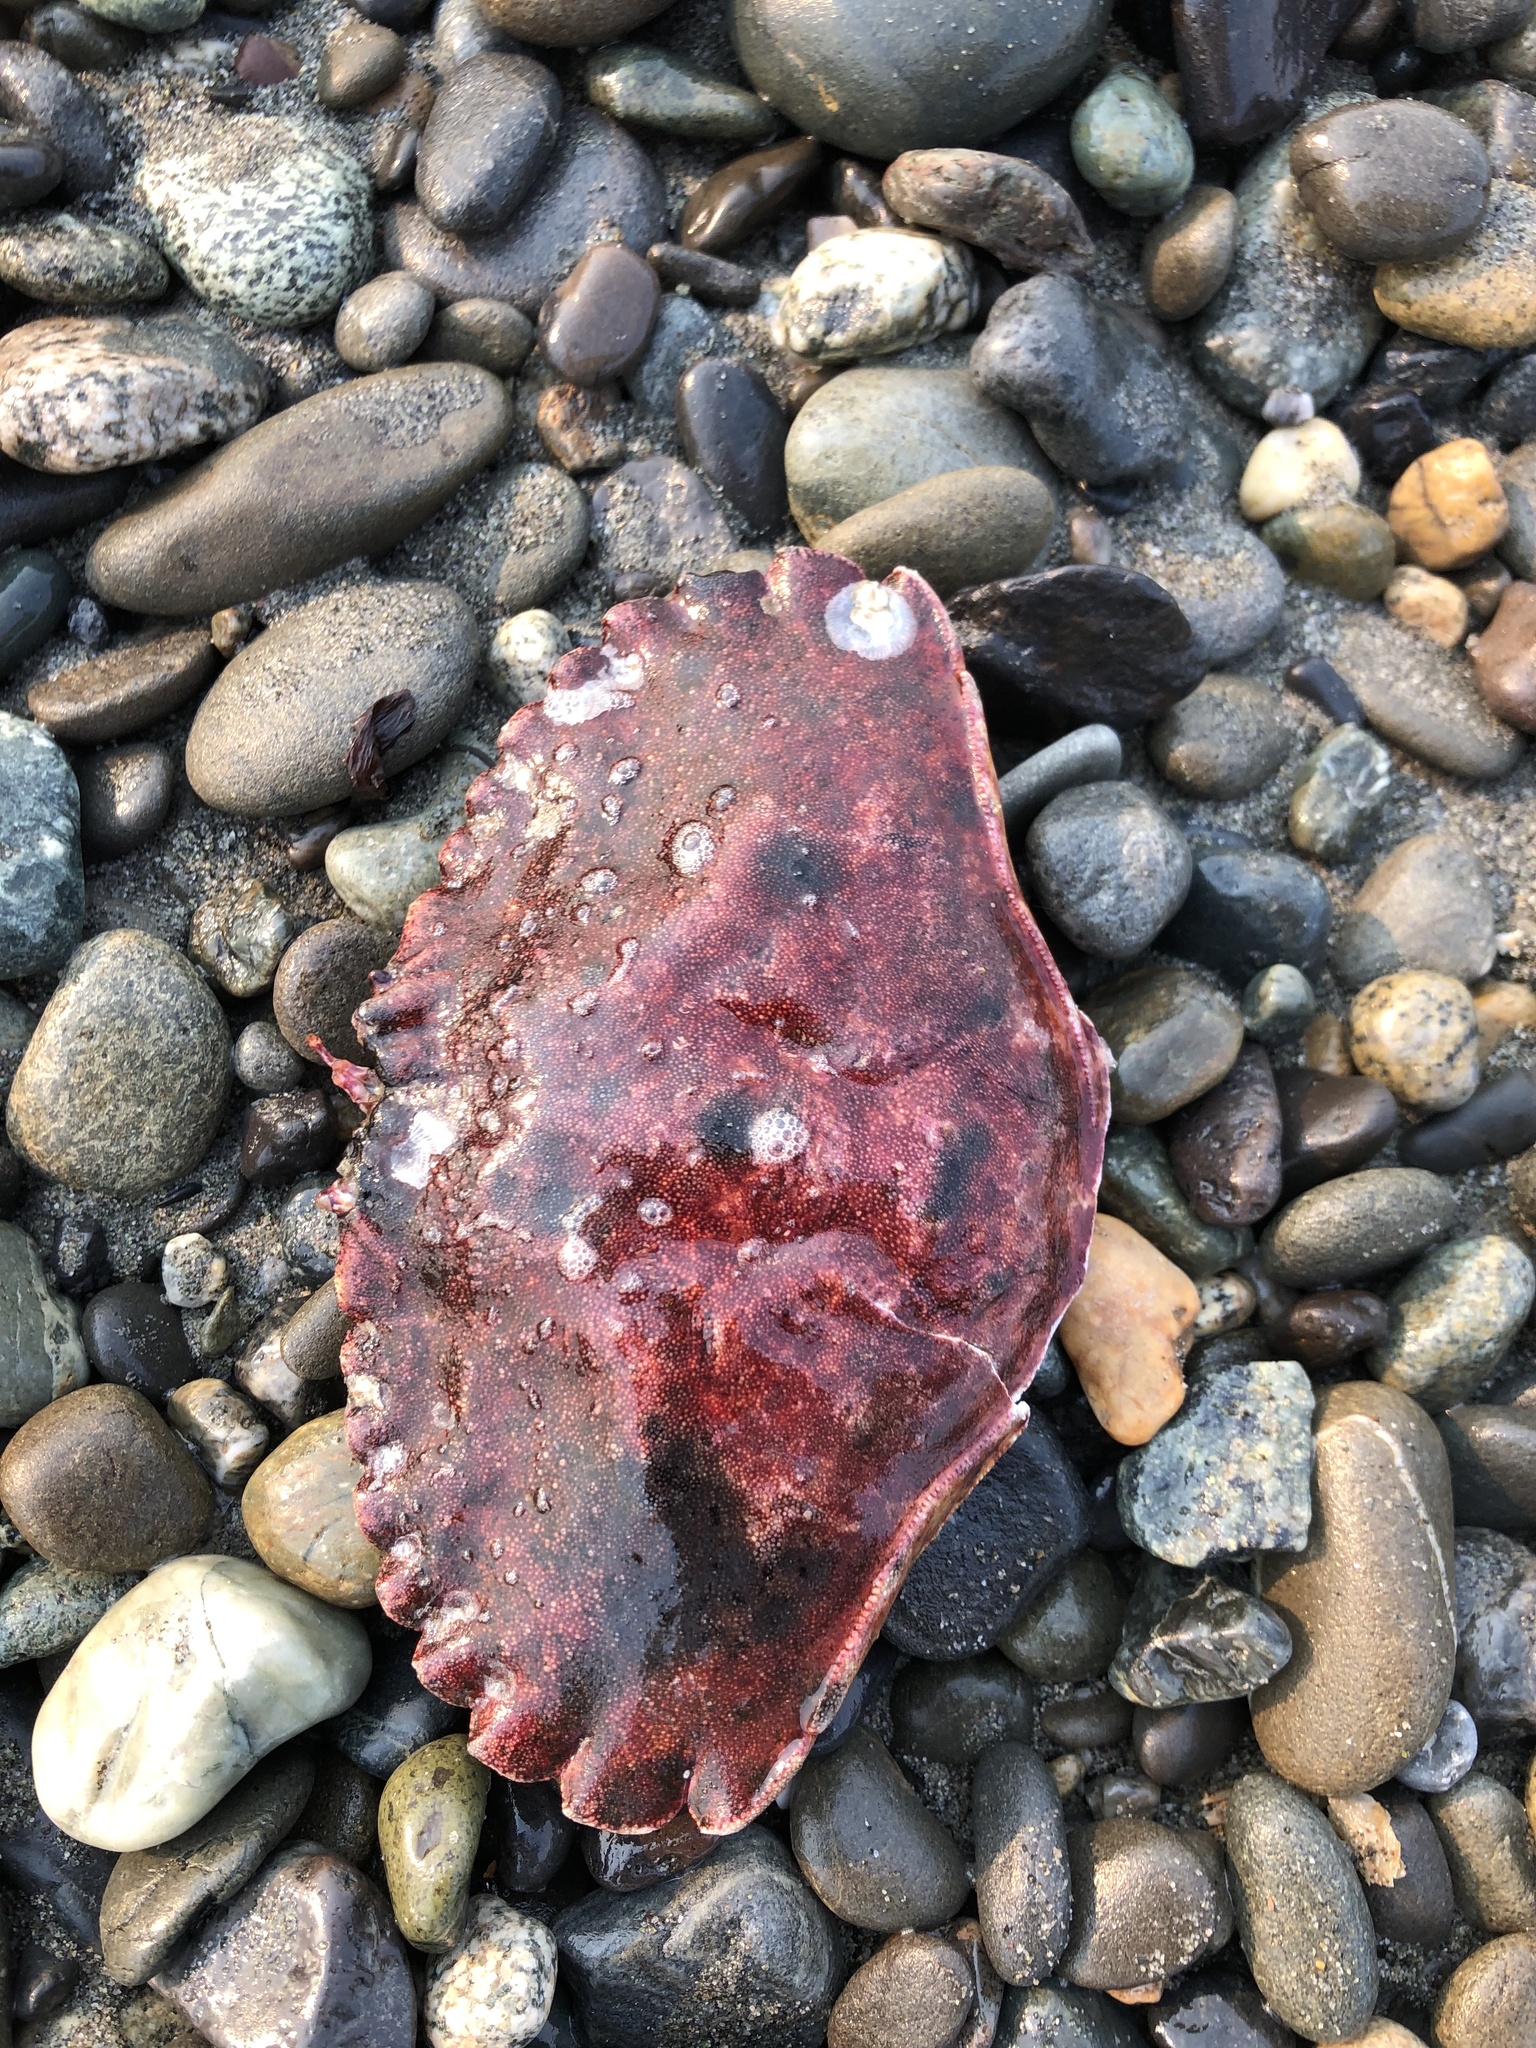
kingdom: Animalia
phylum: Arthropoda
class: Malacostraca
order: Decapoda
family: Cancridae
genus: Cancer
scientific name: Cancer productus
